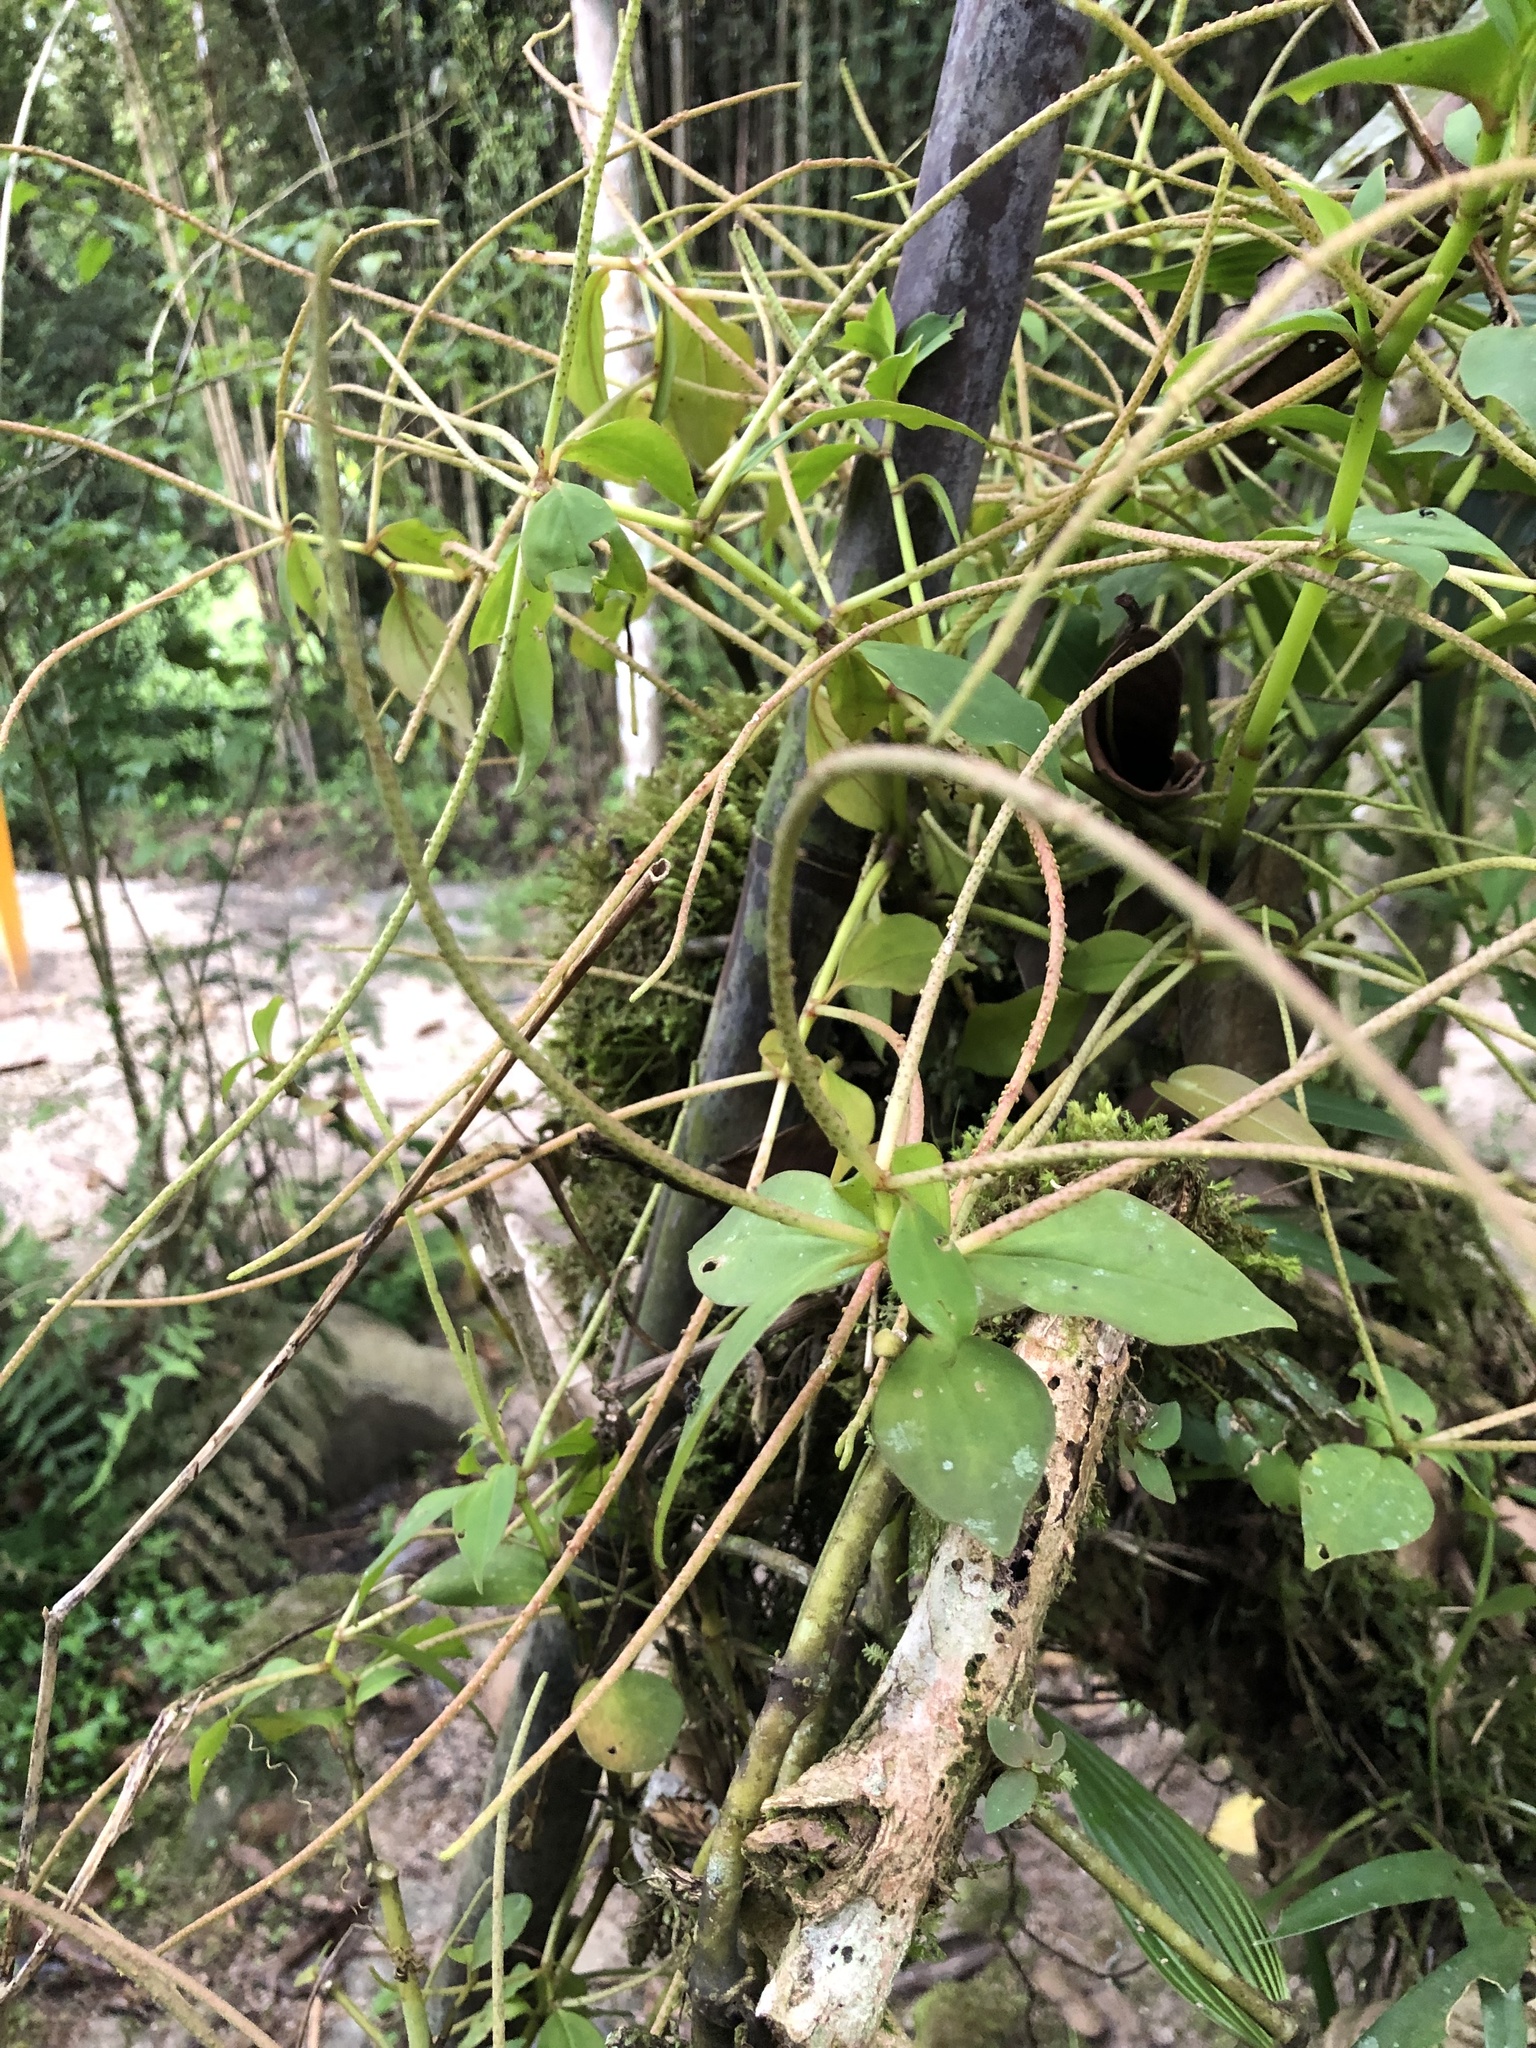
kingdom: Plantae
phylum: Tracheophyta
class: Magnoliopsida
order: Piperales
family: Piperaceae
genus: Peperomia
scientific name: Peperomia ceroderma
